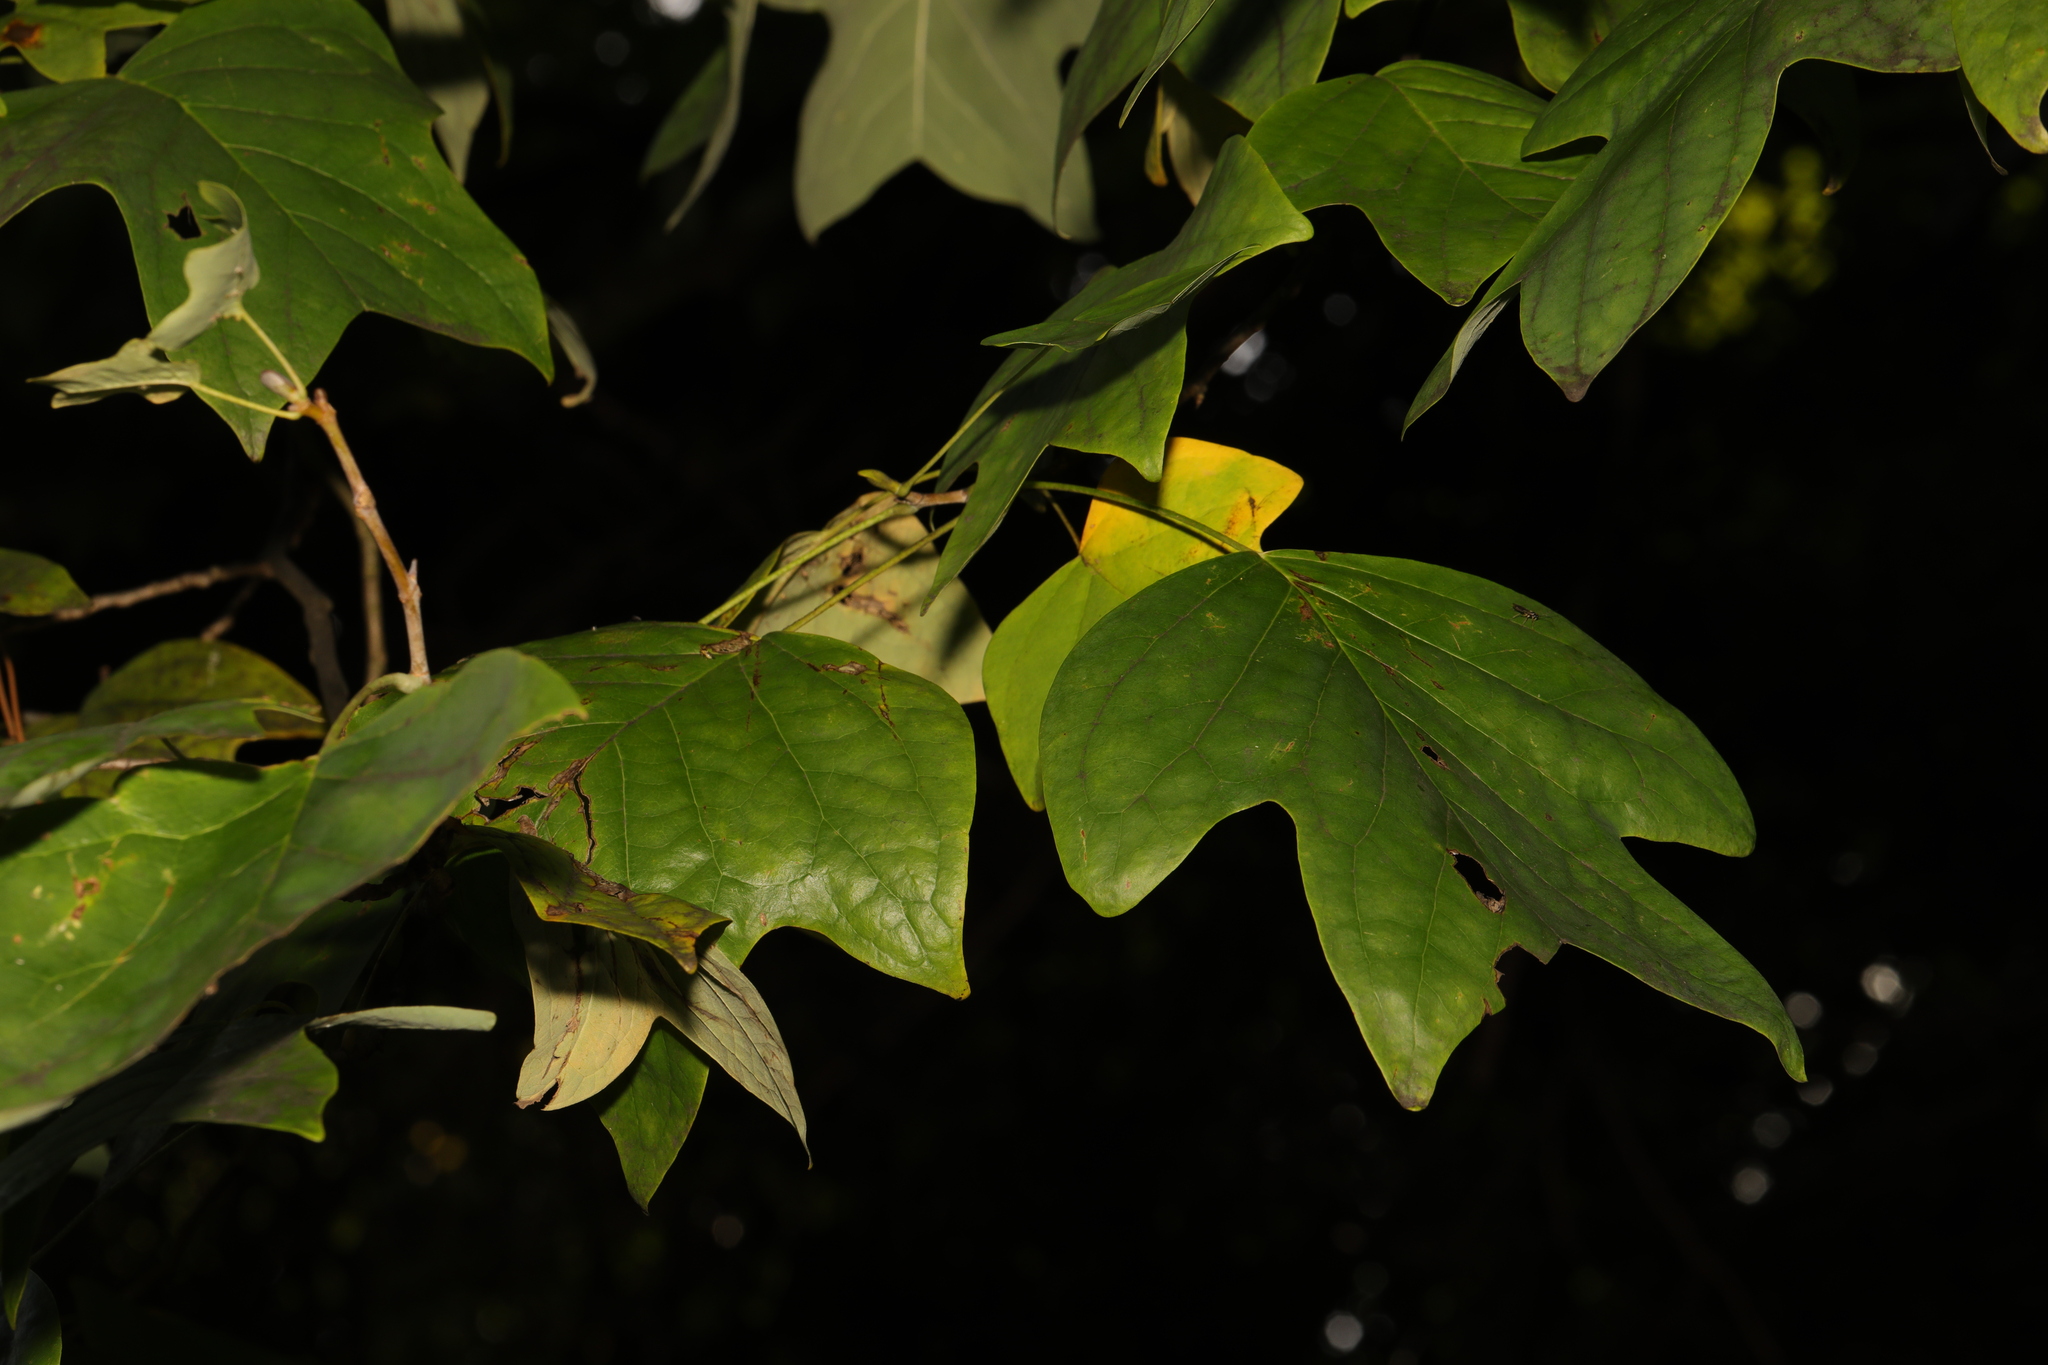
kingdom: Plantae
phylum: Tracheophyta
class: Magnoliopsida
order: Magnoliales
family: Magnoliaceae
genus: Liriodendron
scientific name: Liriodendron tulipifera
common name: Tulip tree
